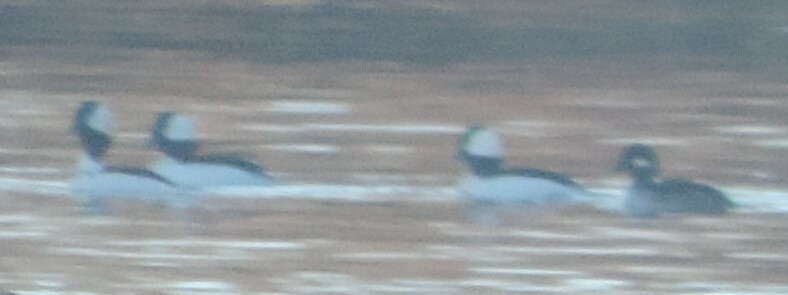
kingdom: Animalia
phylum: Chordata
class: Aves
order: Anseriformes
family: Anatidae
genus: Bucephala
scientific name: Bucephala albeola
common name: Bufflehead
